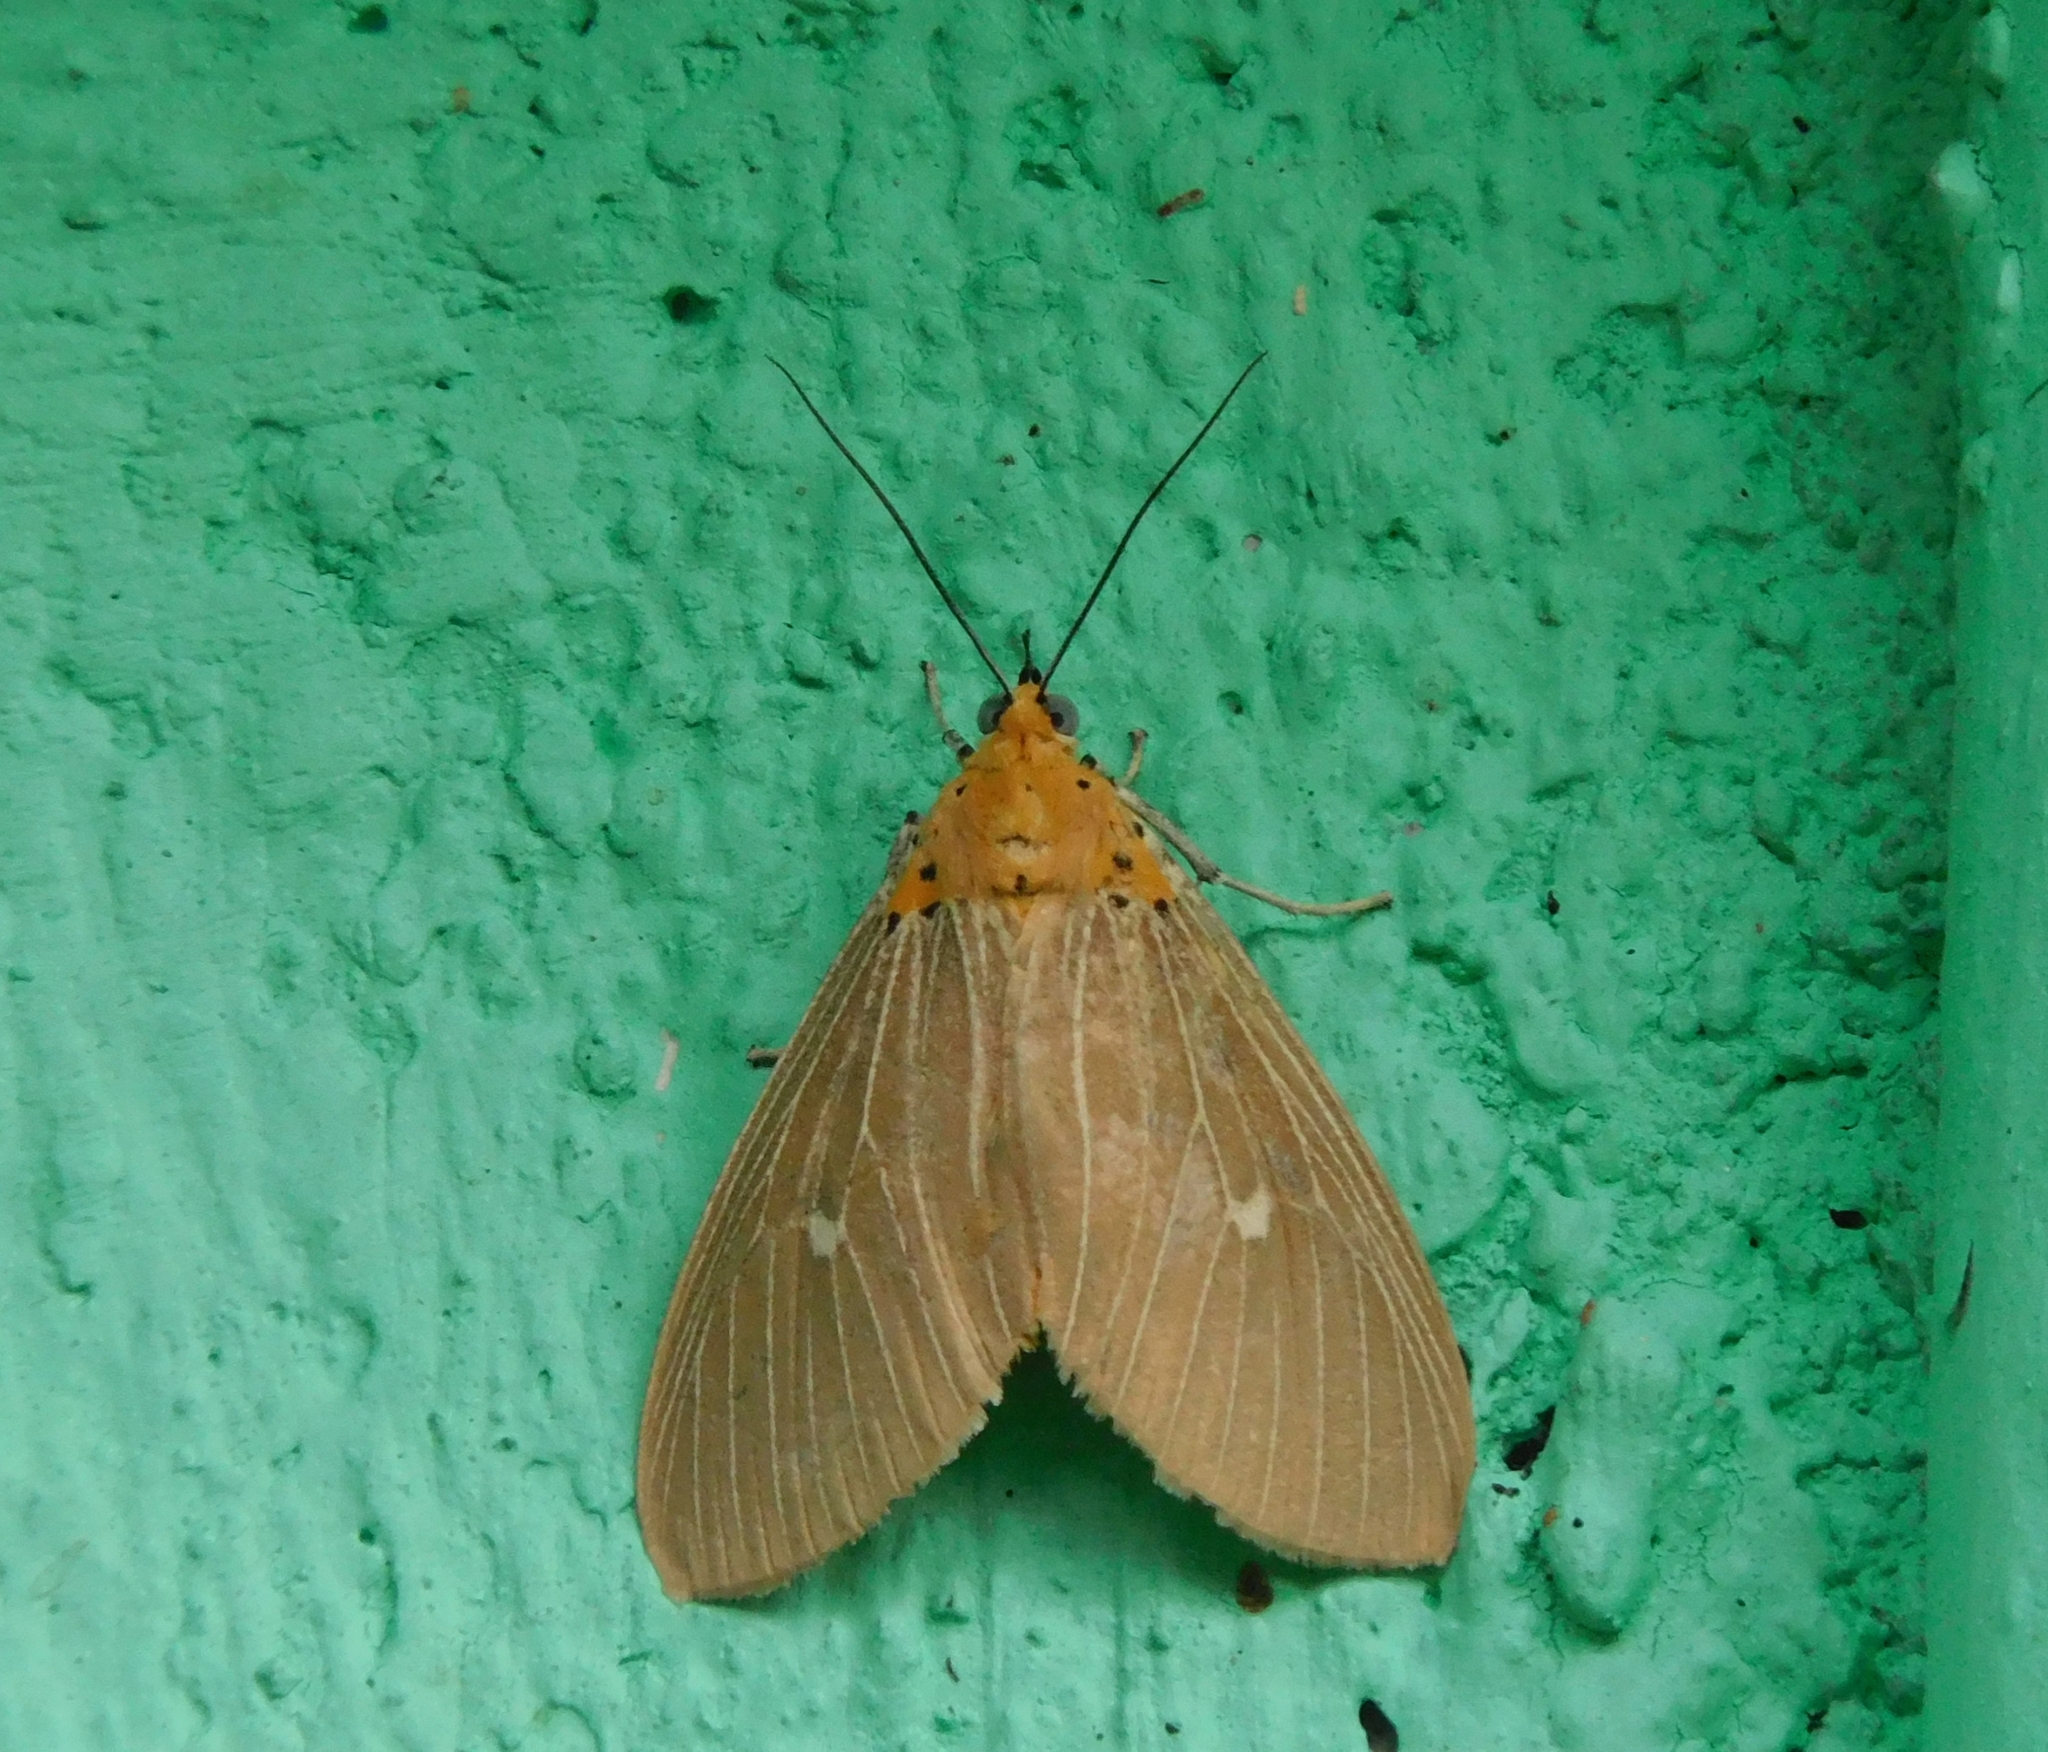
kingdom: Animalia
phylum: Arthropoda
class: Insecta
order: Lepidoptera
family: Erebidae
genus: Asota
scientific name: Asota caricae
